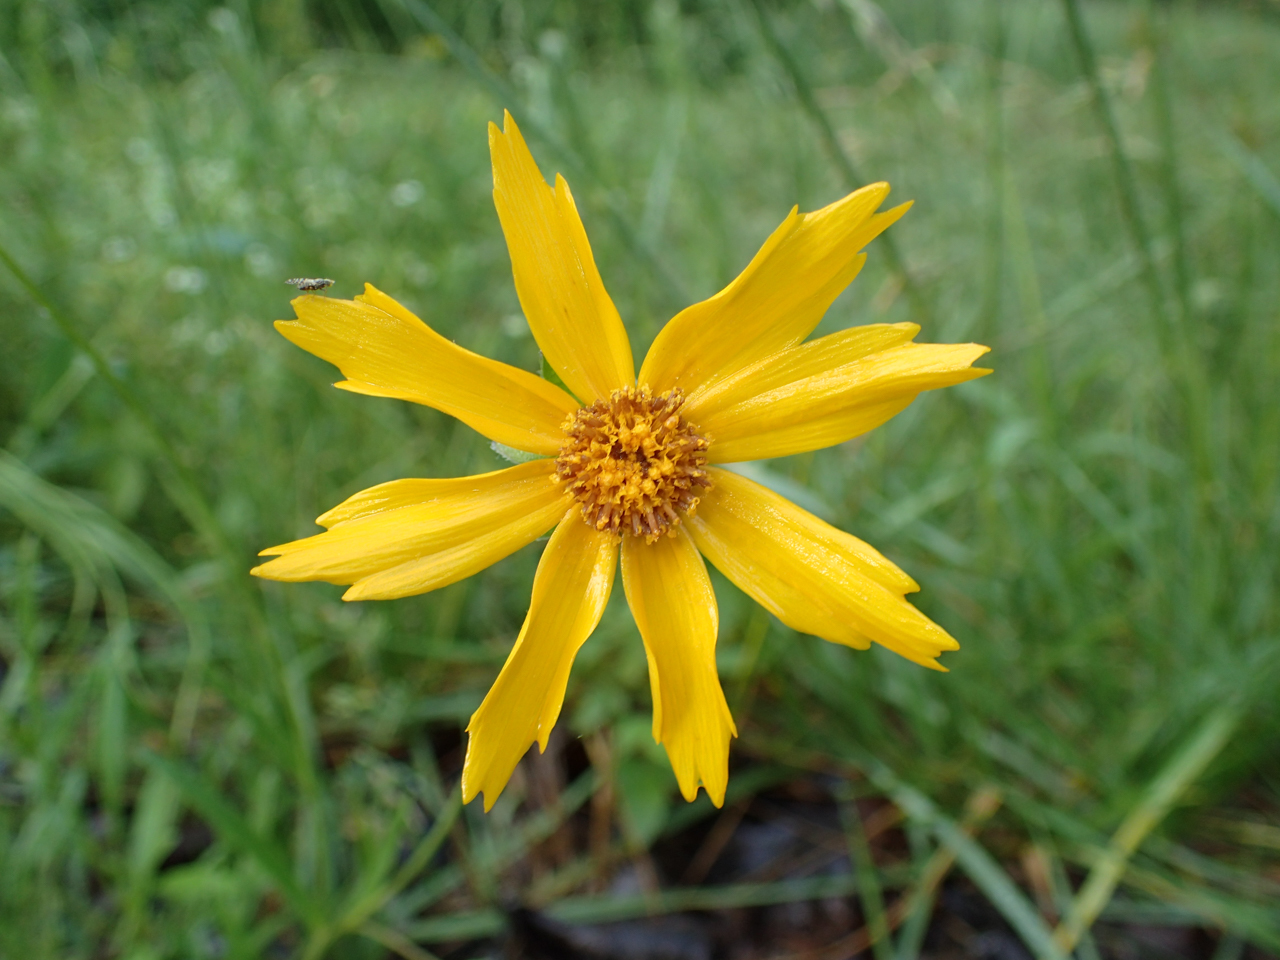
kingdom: Plantae
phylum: Tracheophyta
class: Magnoliopsida
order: Asterales
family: Asteraceae
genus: Coreopsis
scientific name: Coreopsis lanceolata
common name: Garden coreopsis
